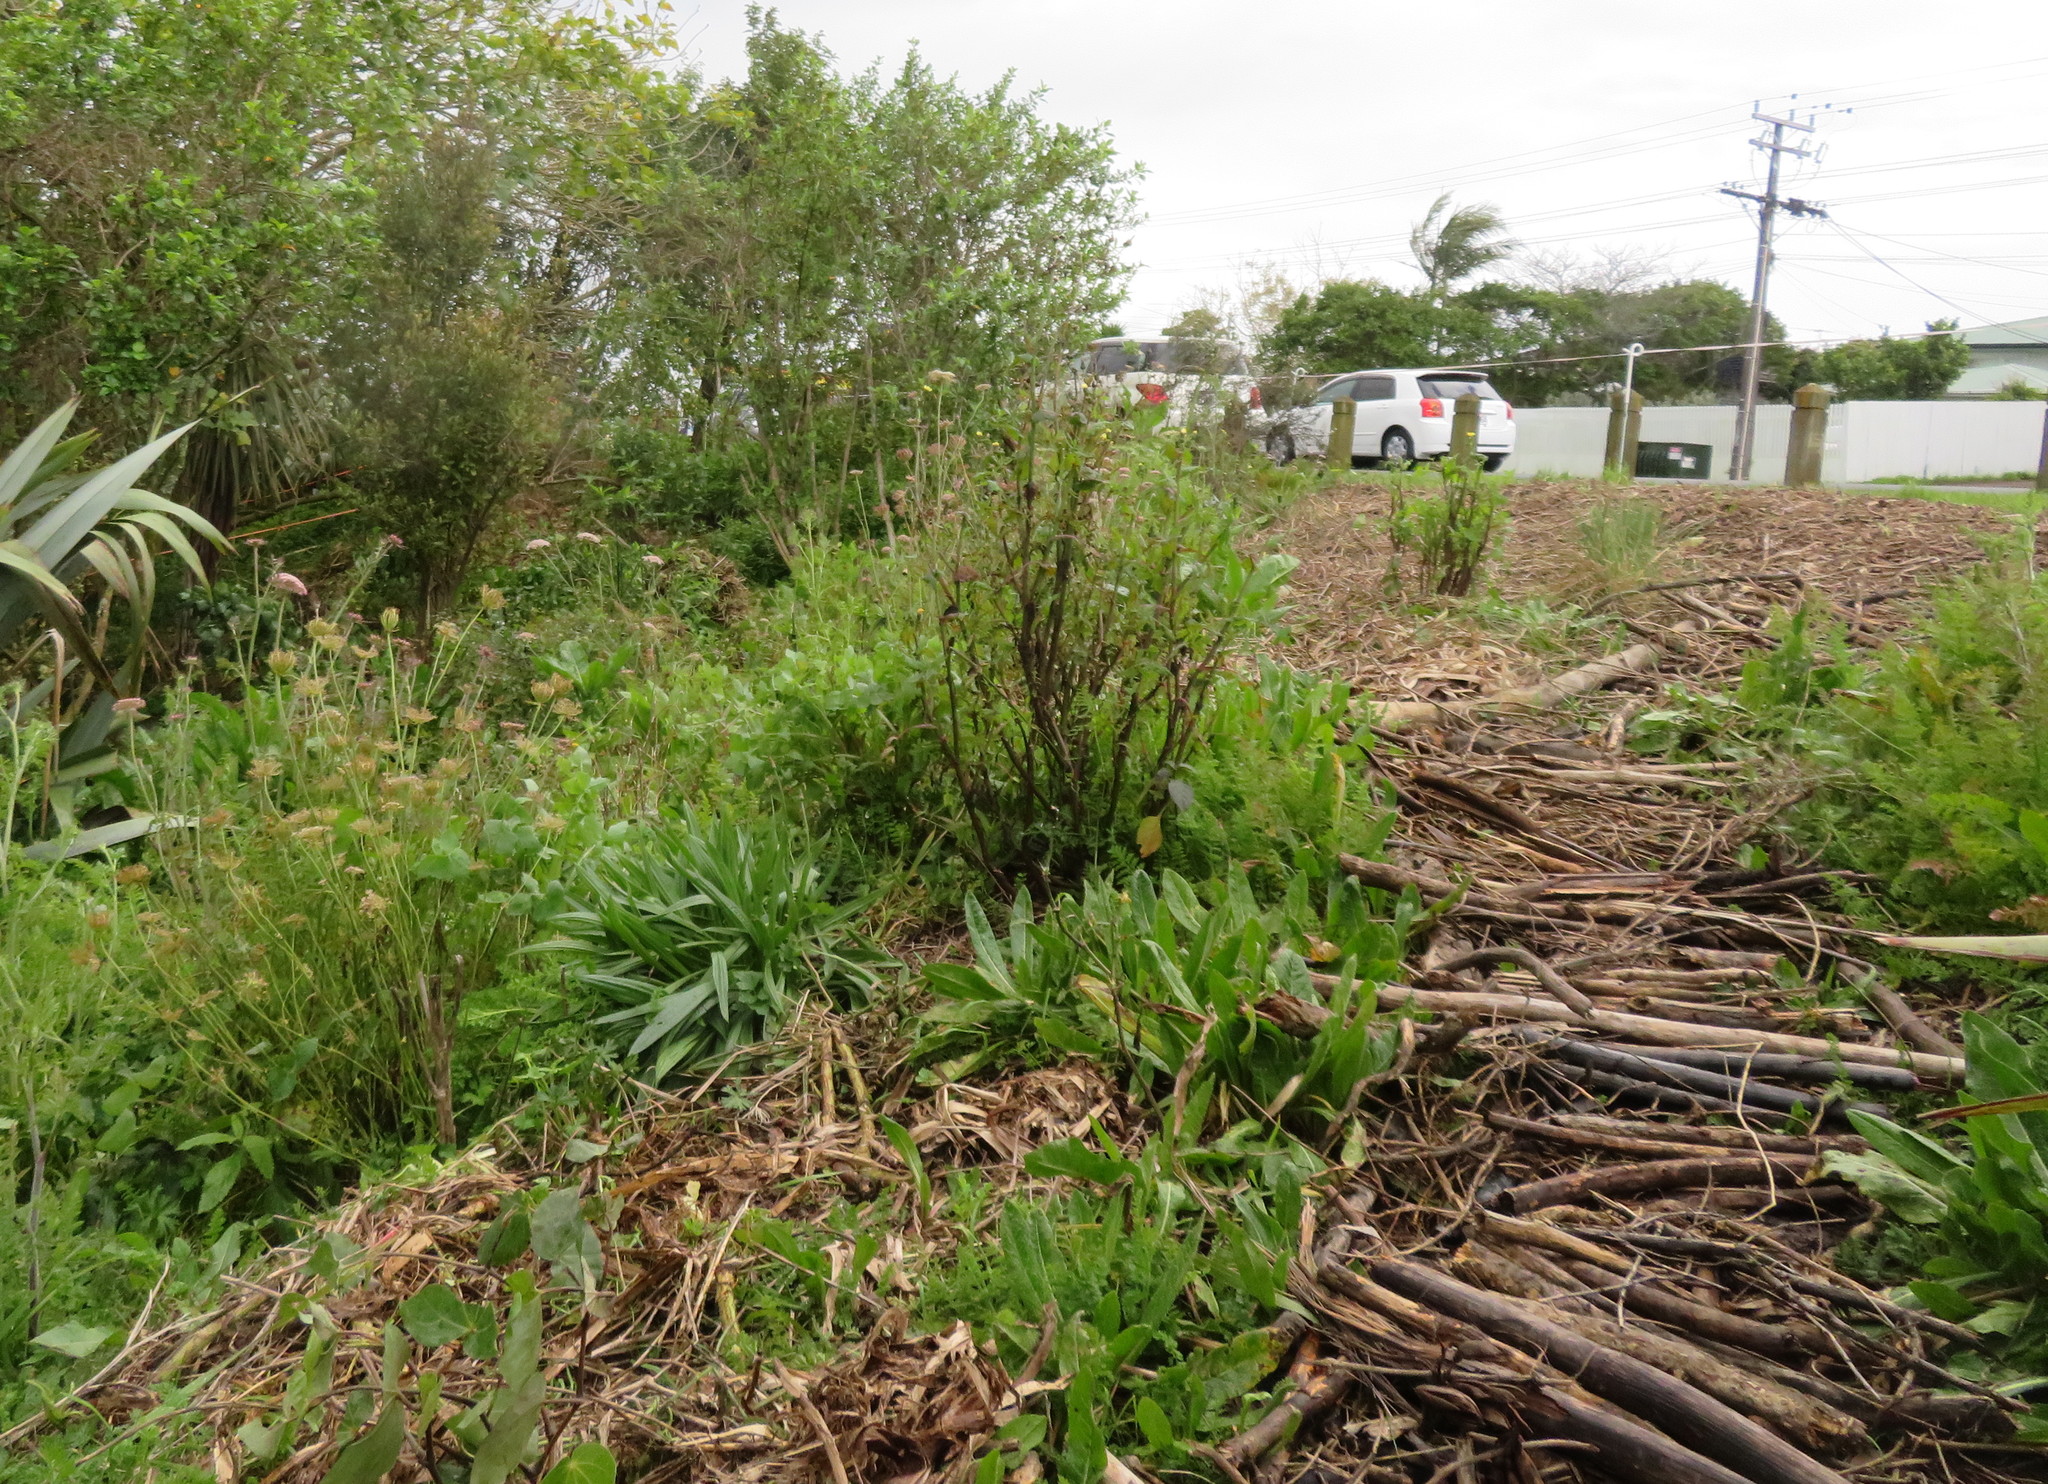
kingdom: Plantae
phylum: Tracheophyta
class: Magnoliopsida
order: Lamiales
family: Plantaginaceae
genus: Plantago
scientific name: Plantago lanceolata
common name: Ribwort plantain
